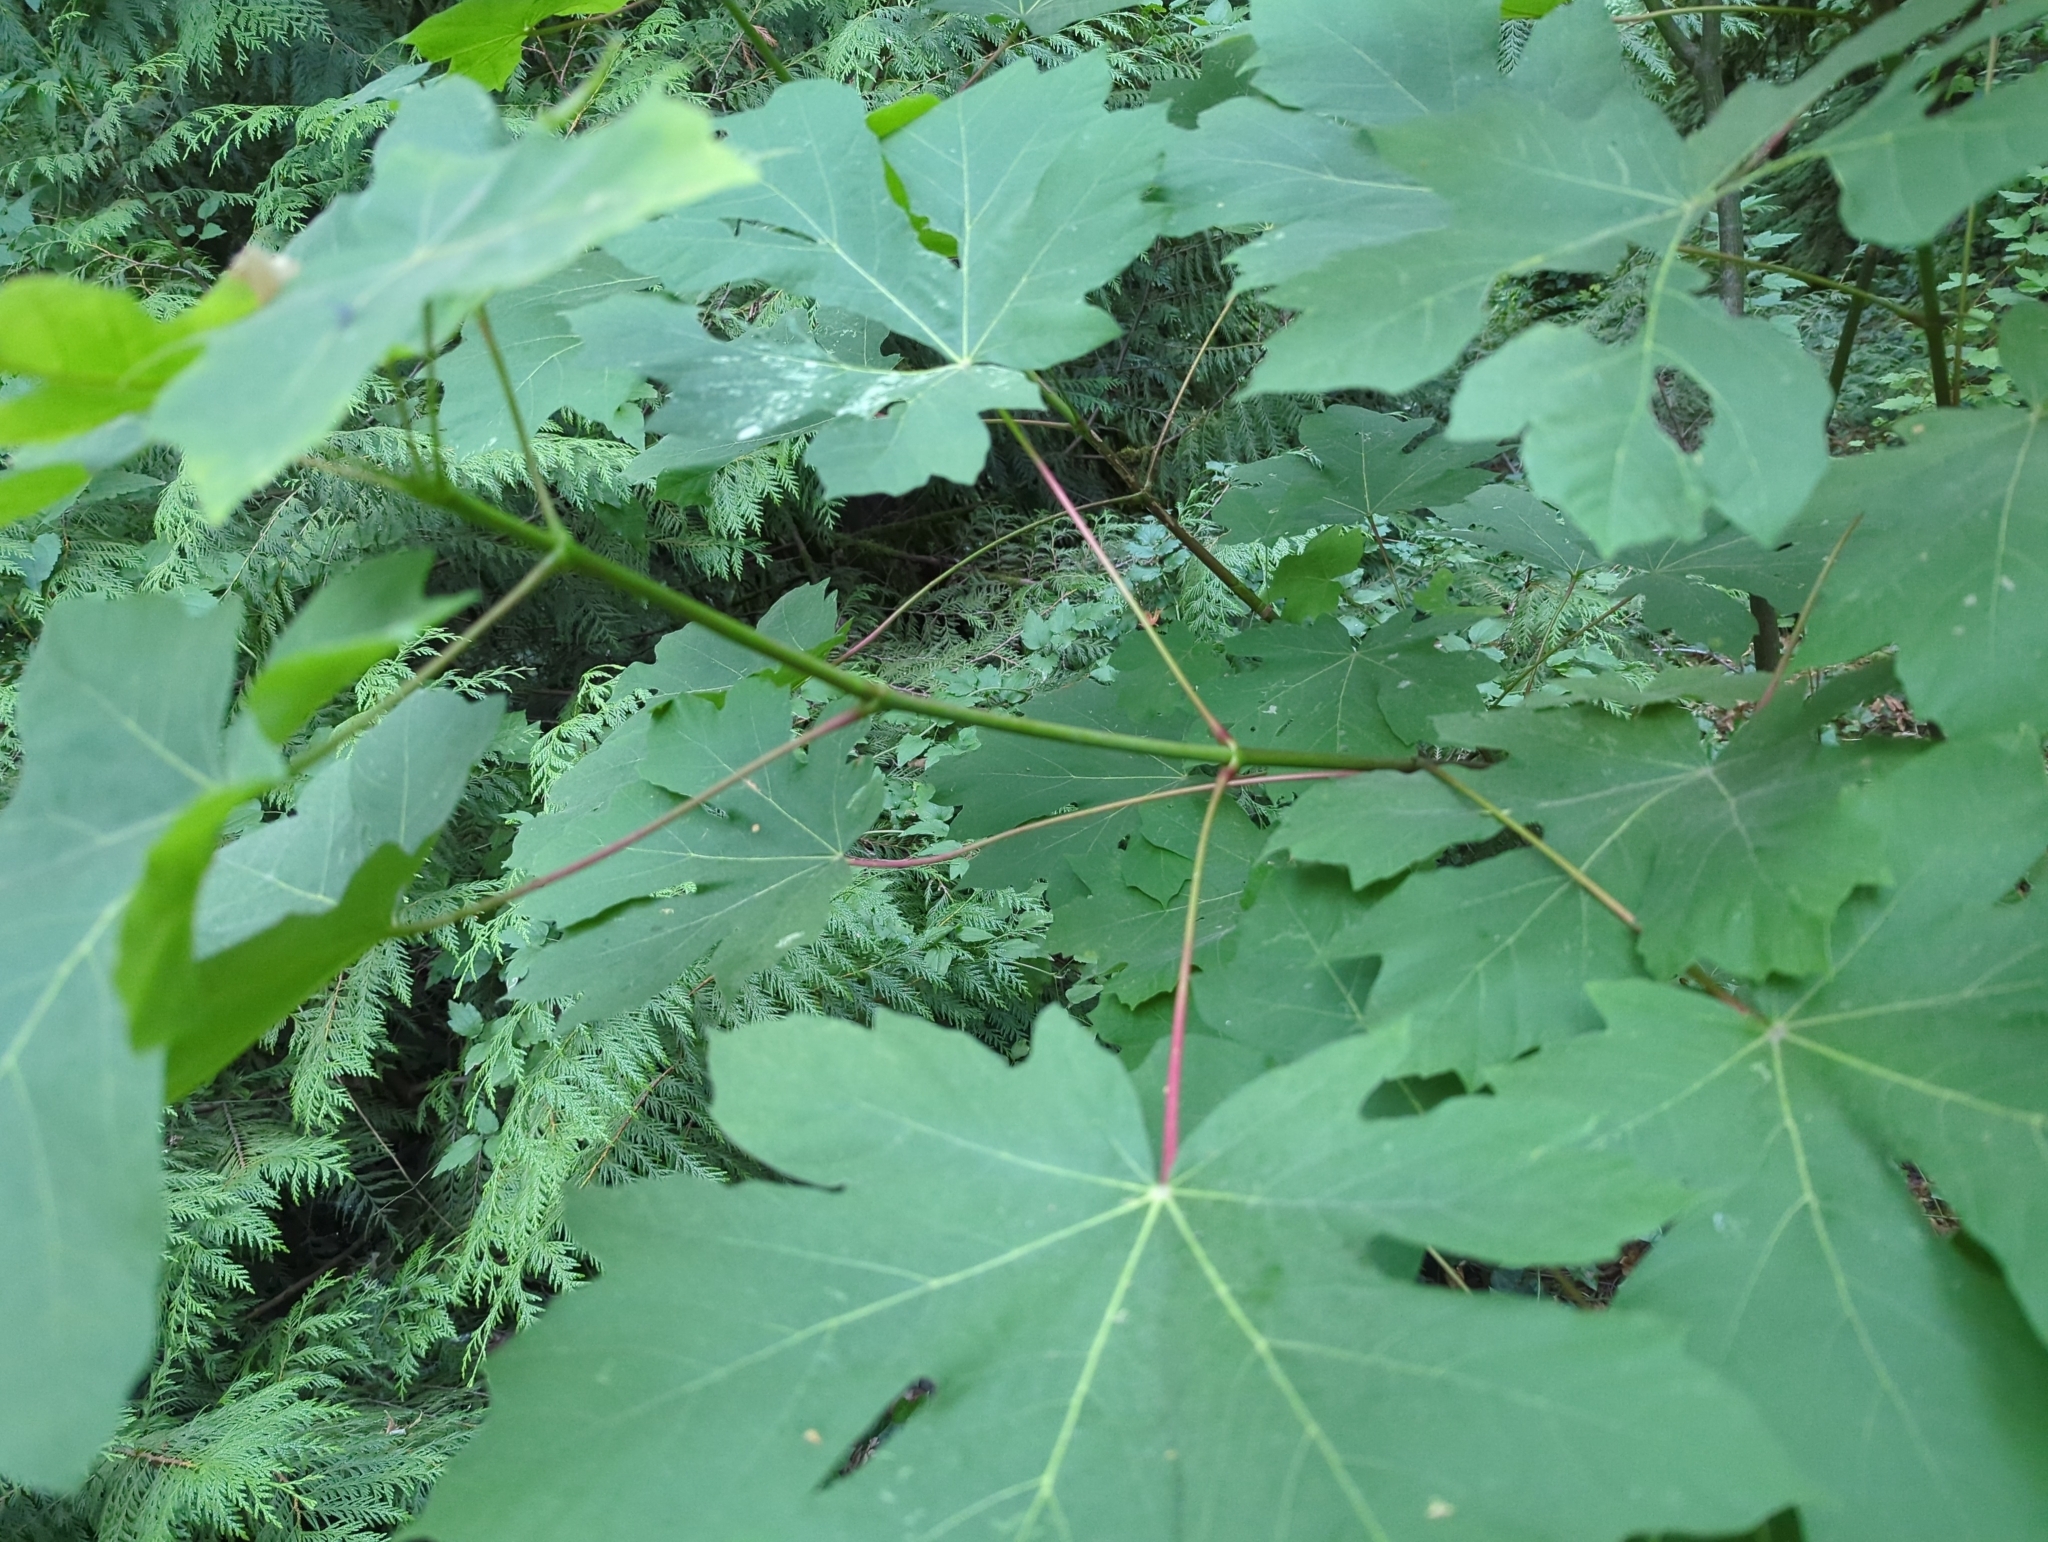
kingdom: Plantae
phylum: Tracheophyta
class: Magnoliopsida
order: Sapindales
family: Sapindaceae
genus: Acer
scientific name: Acer macrophyllum
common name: Oregon maple
